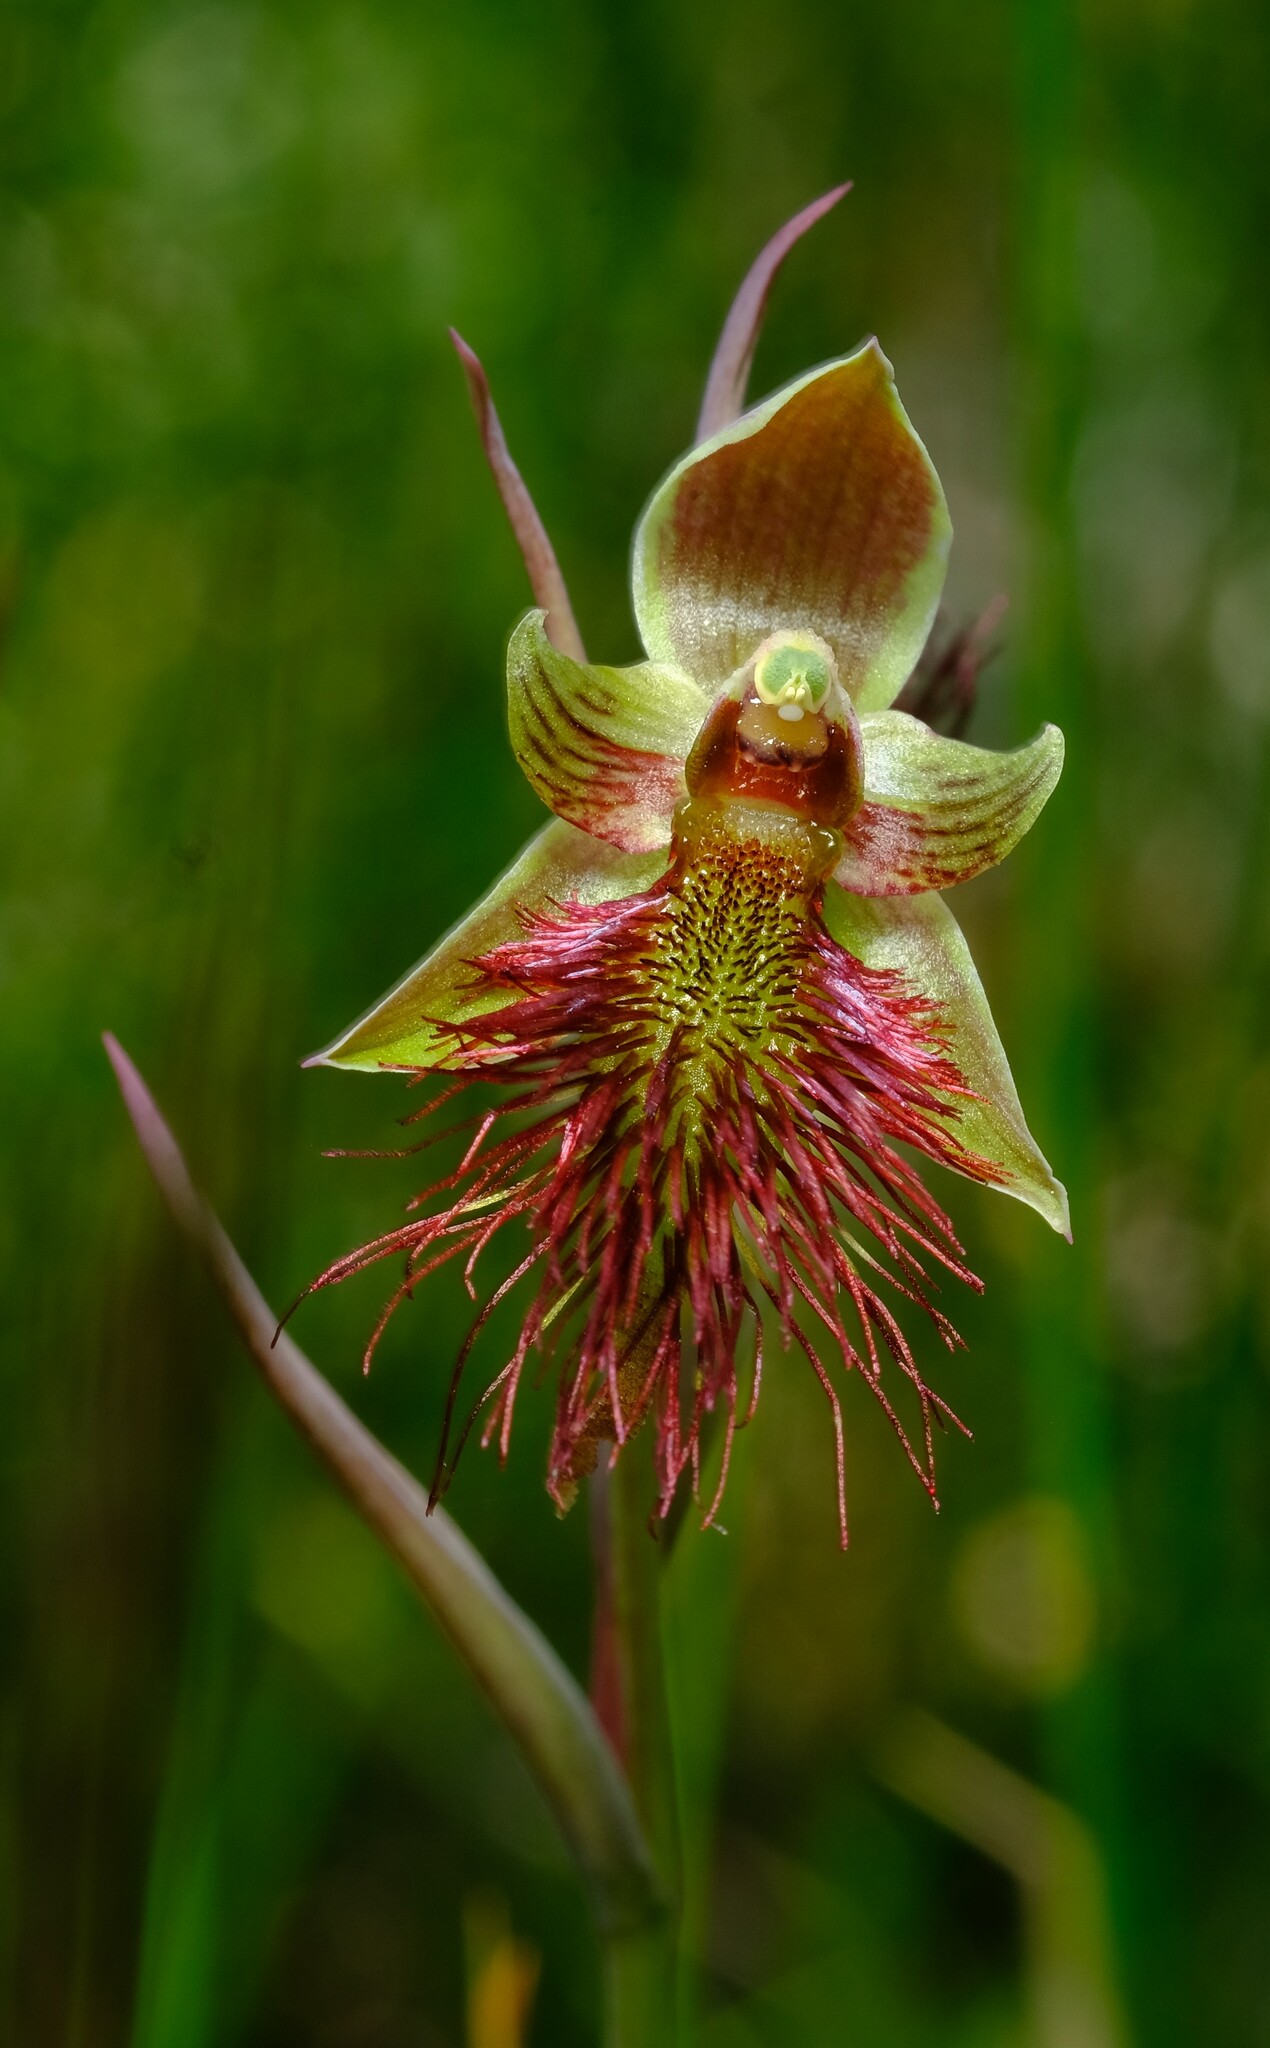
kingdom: Plantae
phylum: Tracheophyta
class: Liliopsida
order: Asparagales
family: Orchidaceae
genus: Calochilus
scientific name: Calochilus paludosus
